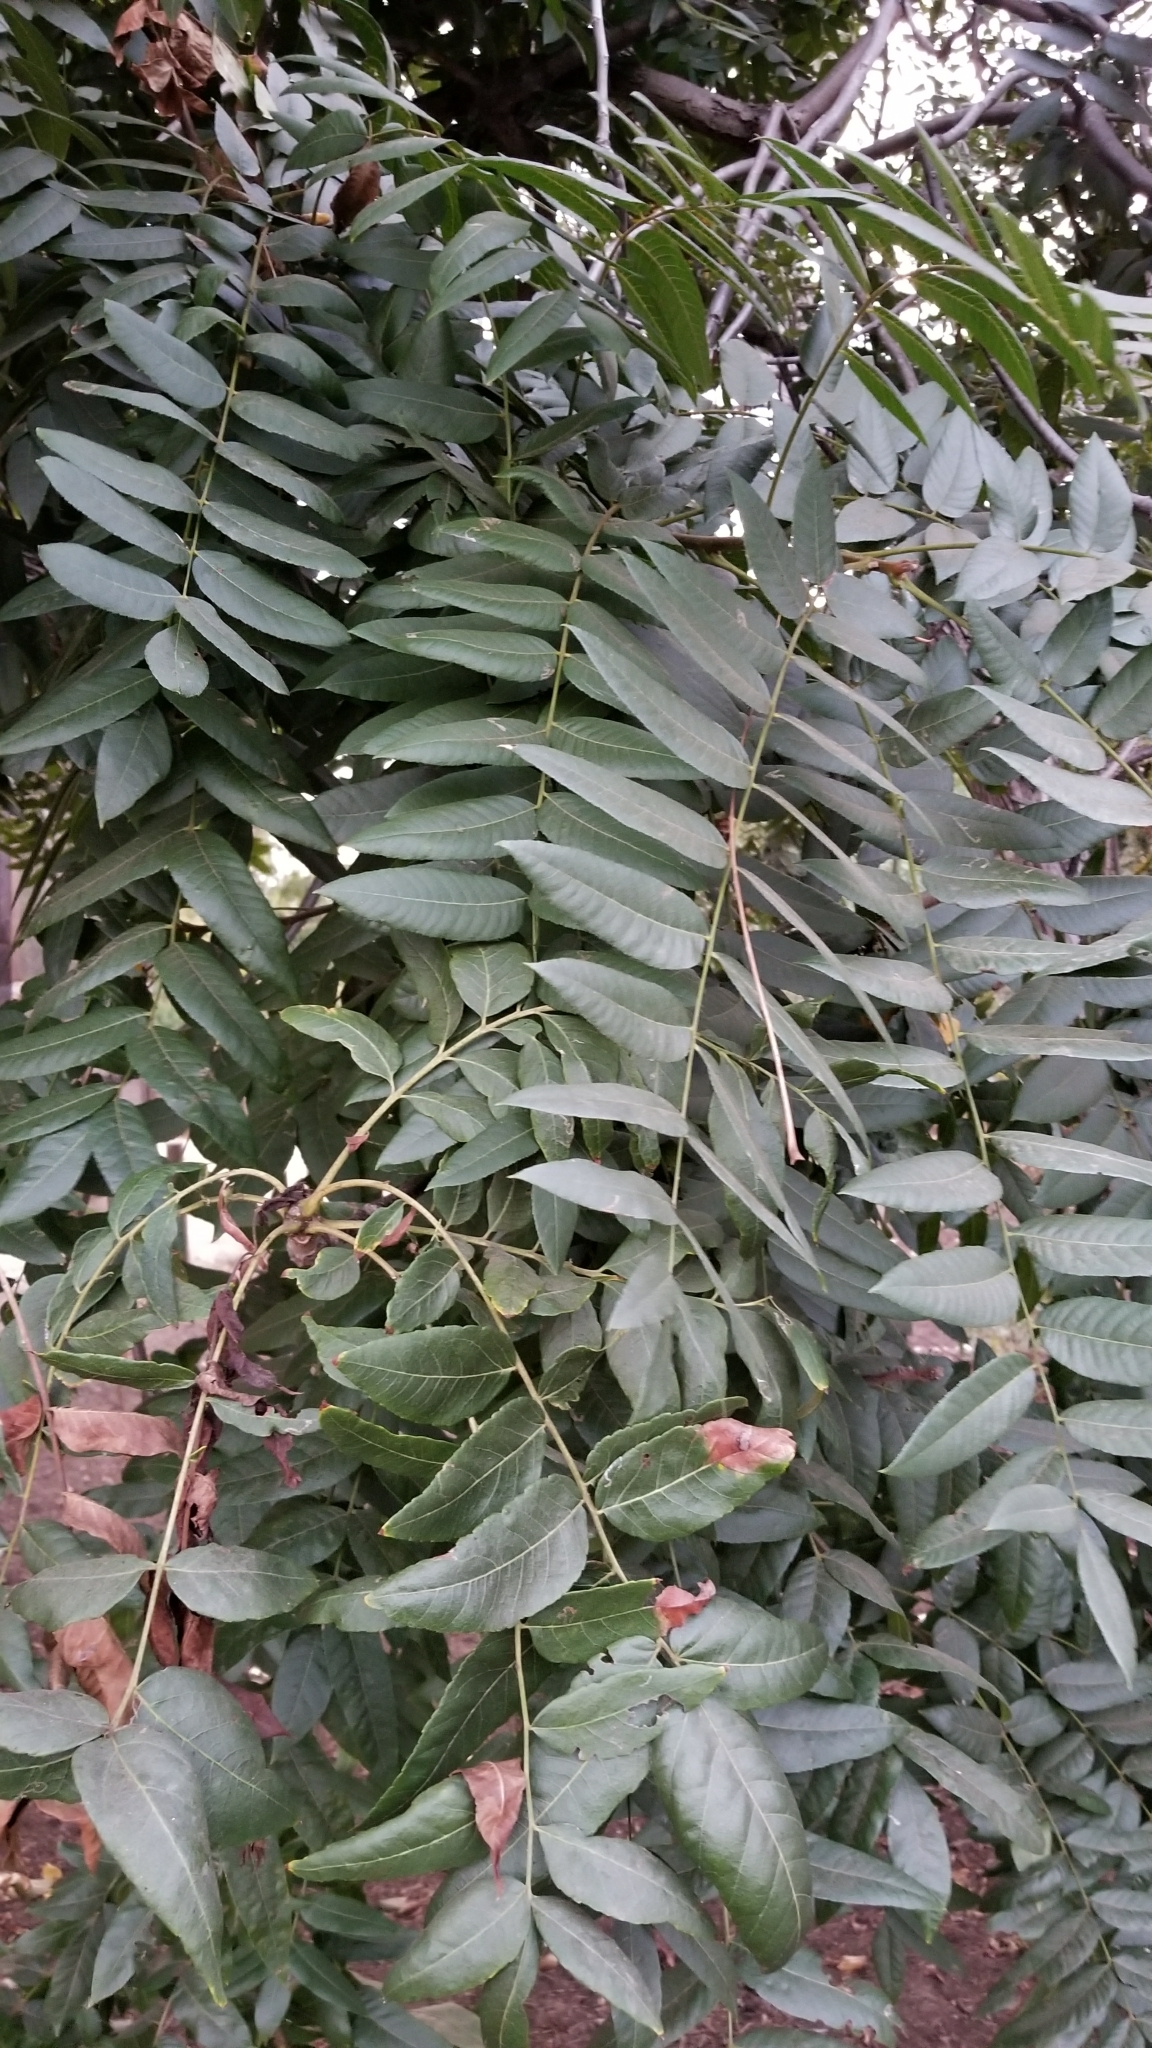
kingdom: Plantae
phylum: Tracheophyta
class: Magnoliopsida
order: Fagales
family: Juglandaceae
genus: Juglans
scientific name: Juglans californica
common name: Southern california black walnut
